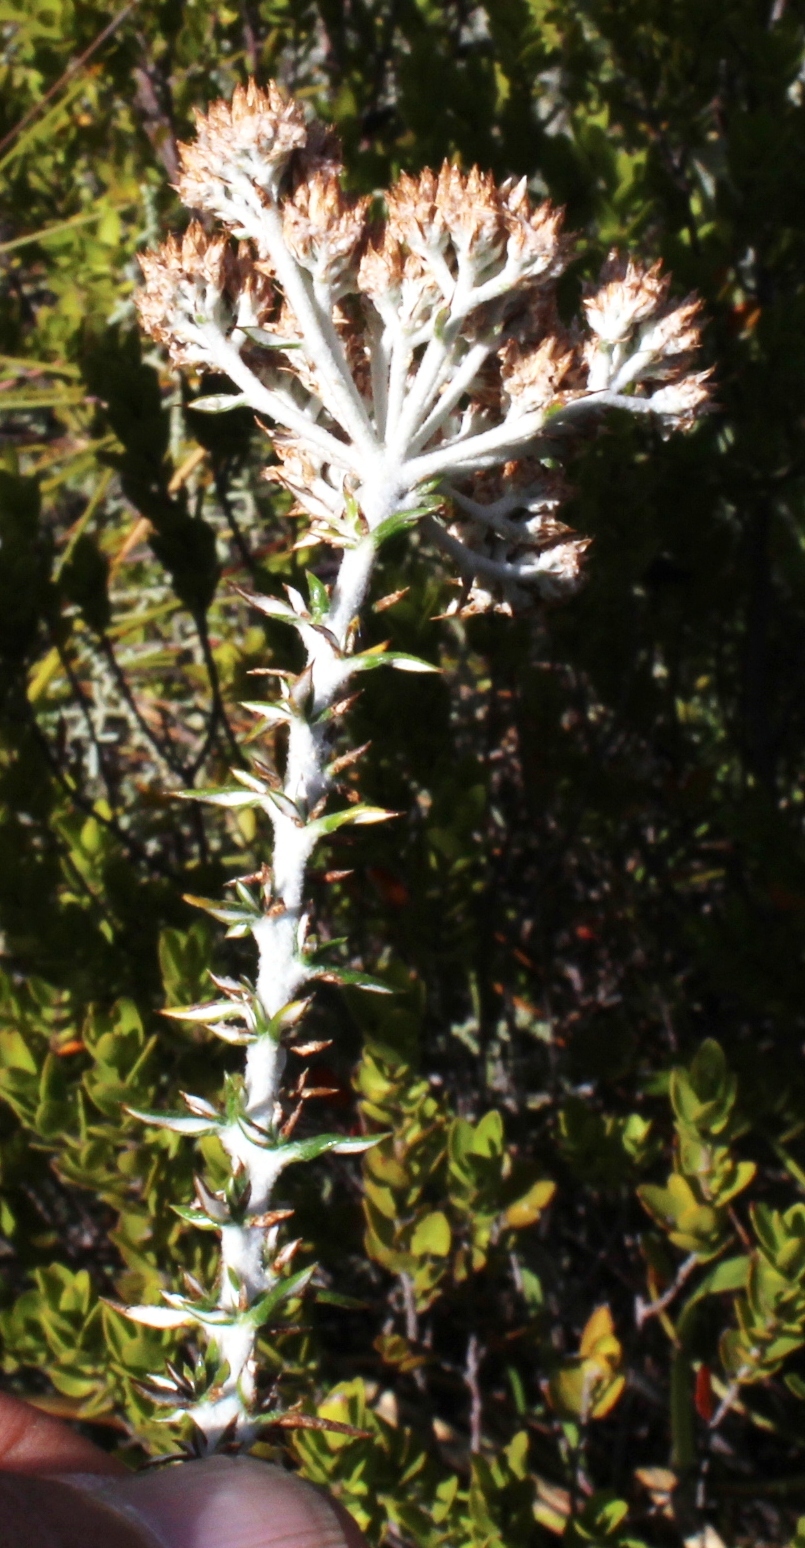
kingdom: Plantae
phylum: Tracheophyta
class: Magnoliopsida
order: Asterales
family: Asteraceae
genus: Metalasia
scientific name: Metalasia densa
